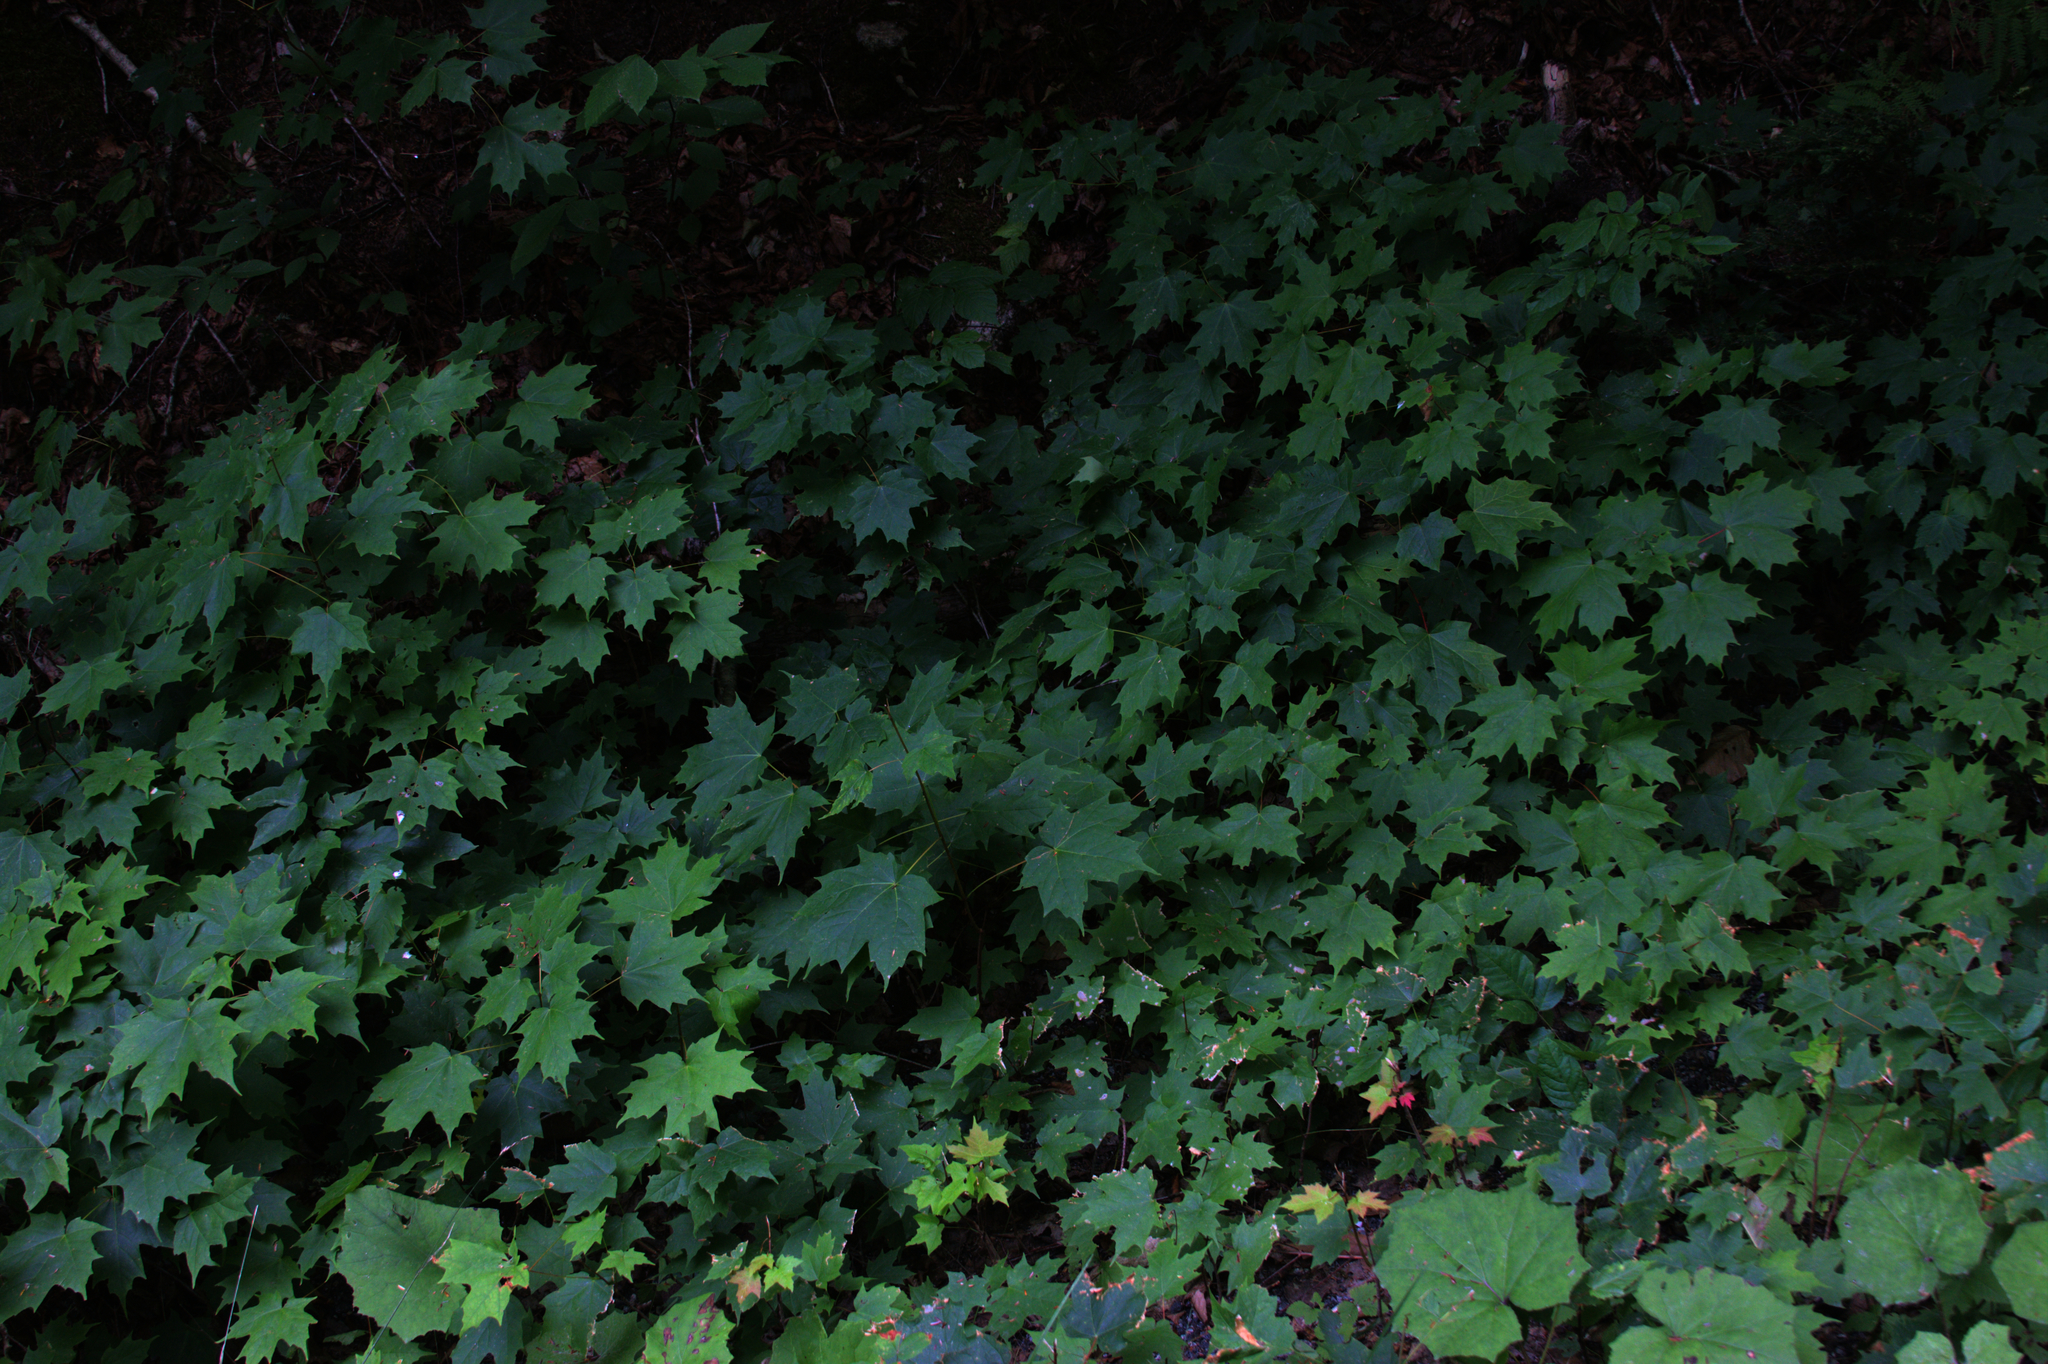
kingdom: Plantae
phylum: Tracheophyta
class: Magnoliopsida
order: Asterales
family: Asteraceae
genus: Tussilago
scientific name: Tussilago farfara
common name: Coltsfoot
